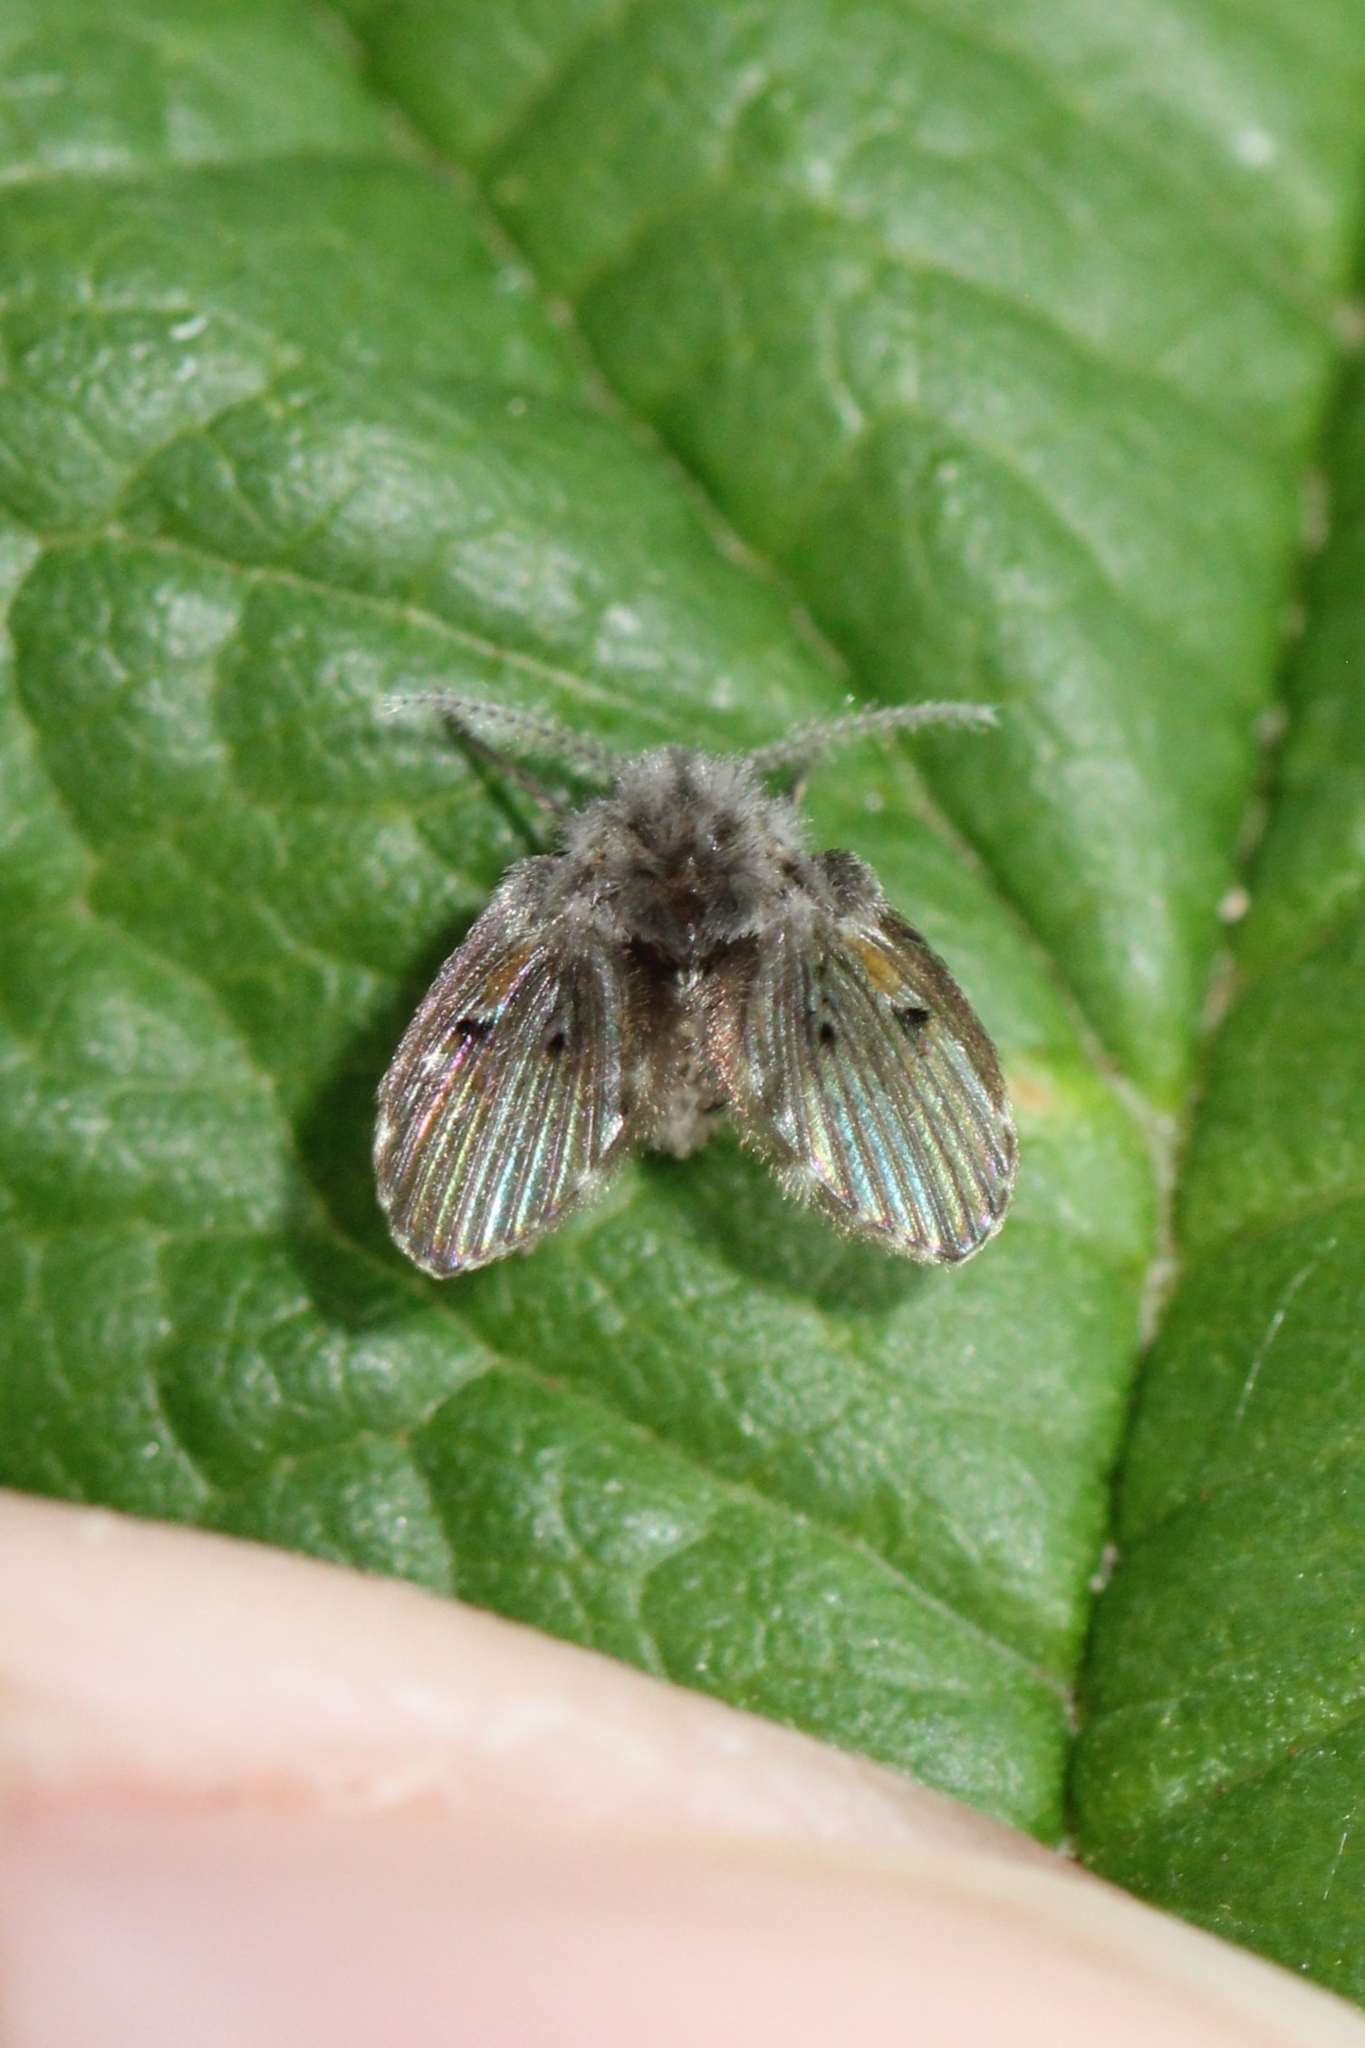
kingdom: Animalia
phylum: Arthropoda
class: Insecta
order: Diptera
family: Psychodidae
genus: Clogmia
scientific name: Clogmia albipunctatus
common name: White-spotted moth fly
